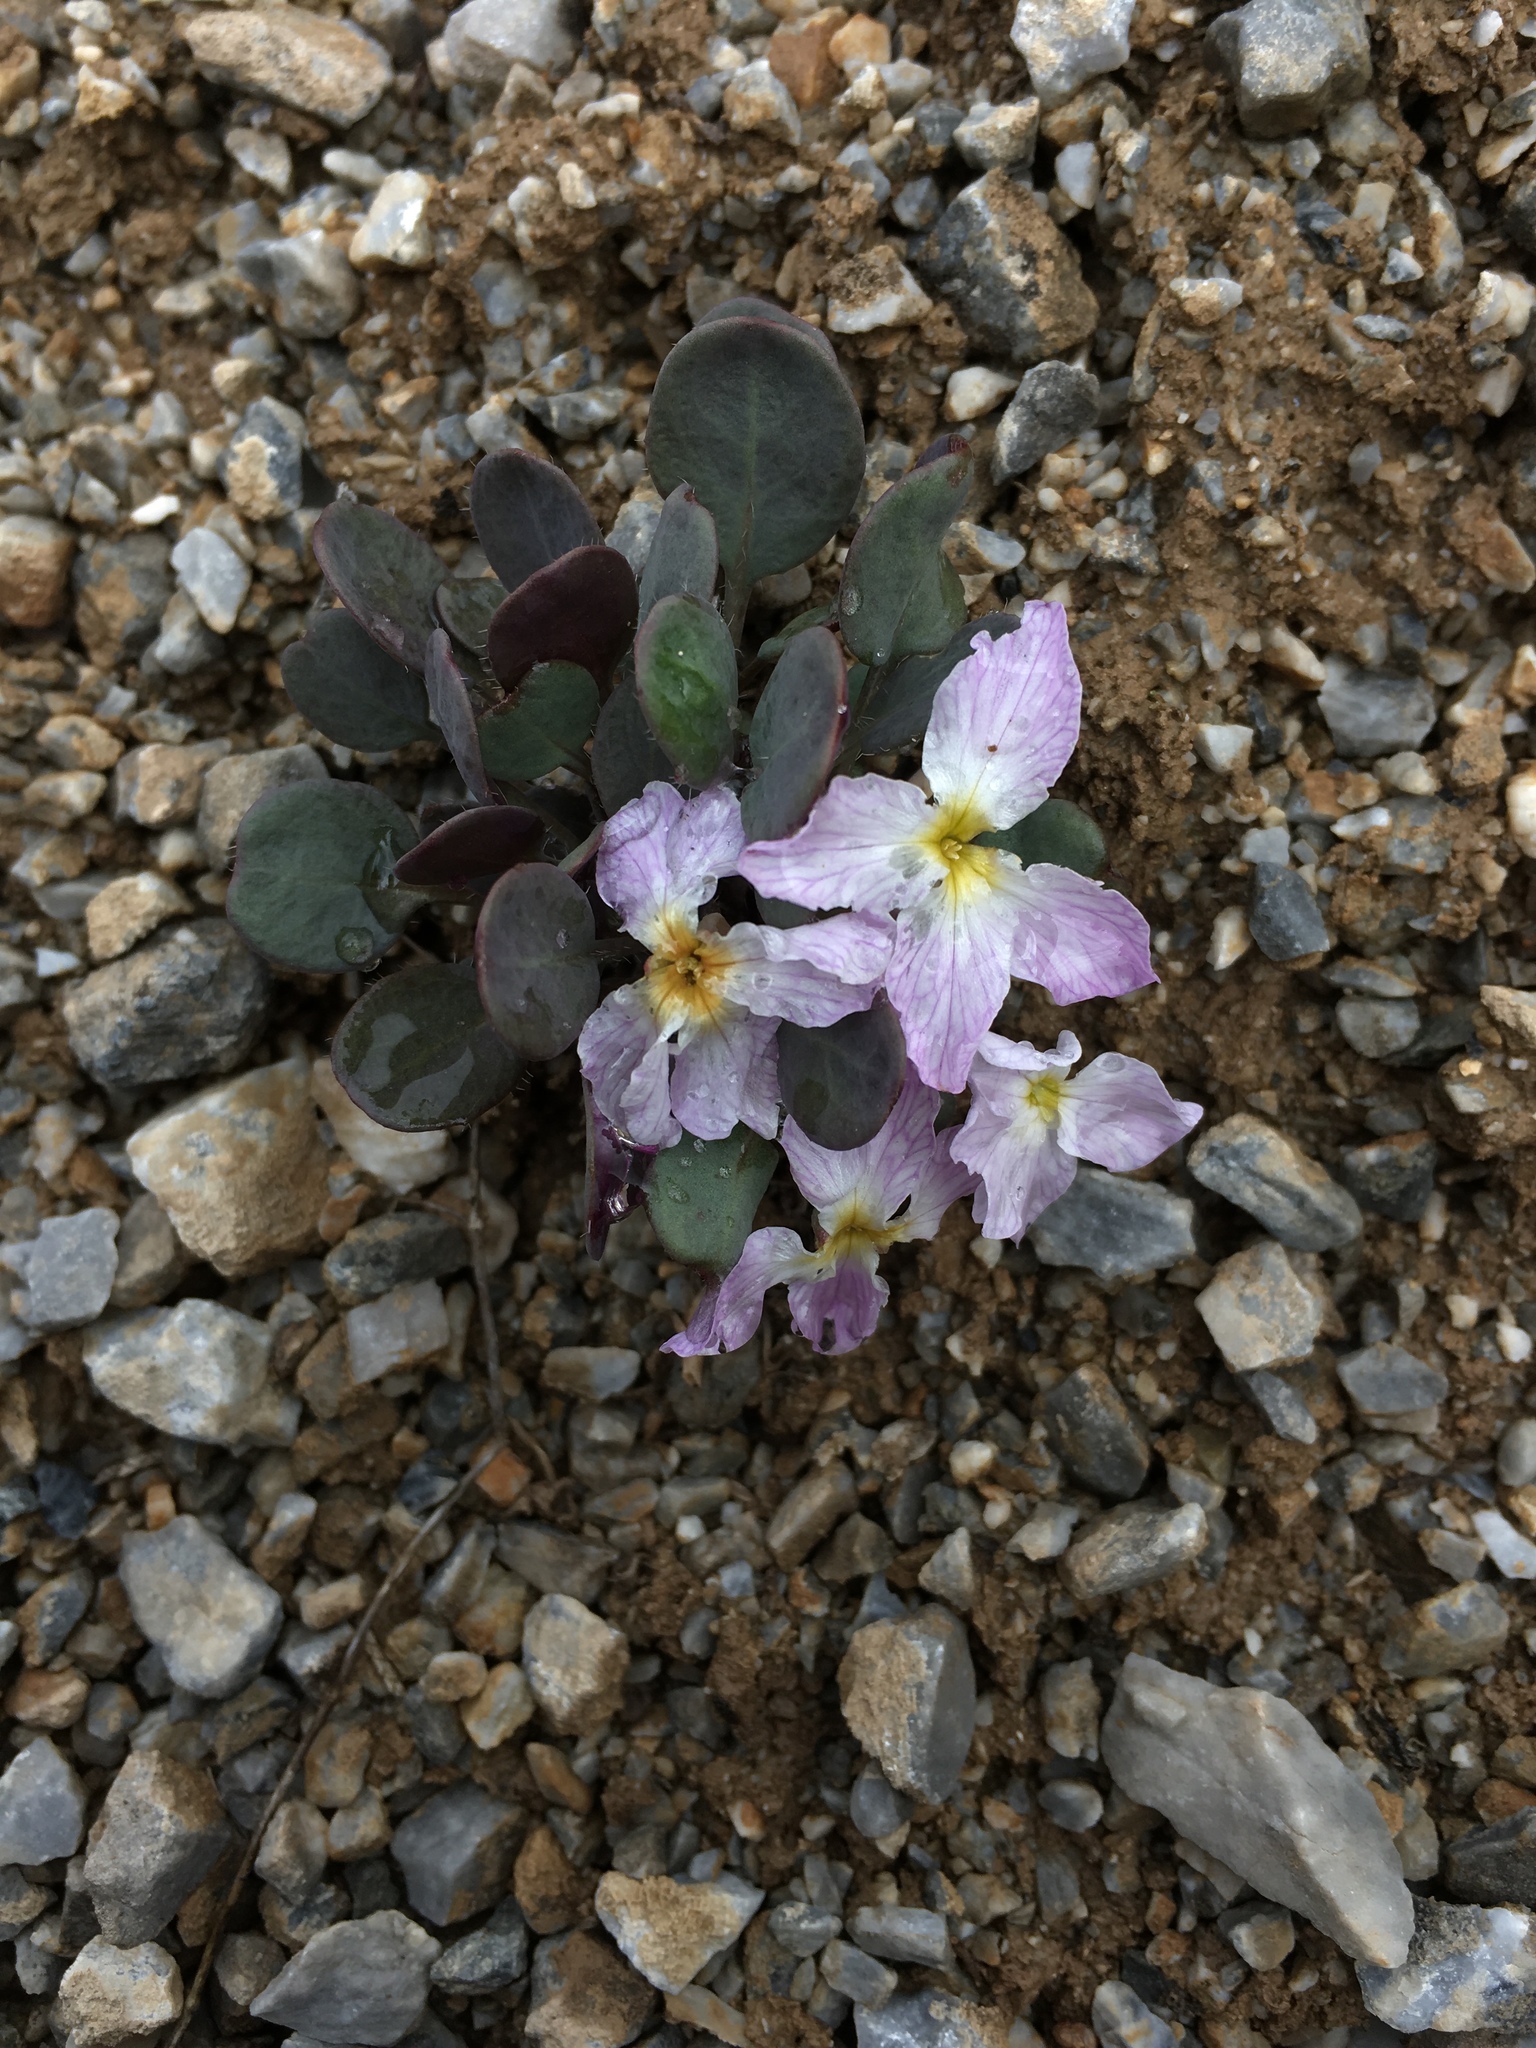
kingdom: Plantae
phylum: Tracheophyta
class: Magnoliopsida
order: Brassicales
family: Brassicaceae
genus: Leiospora
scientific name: Leiospora subscapigera
